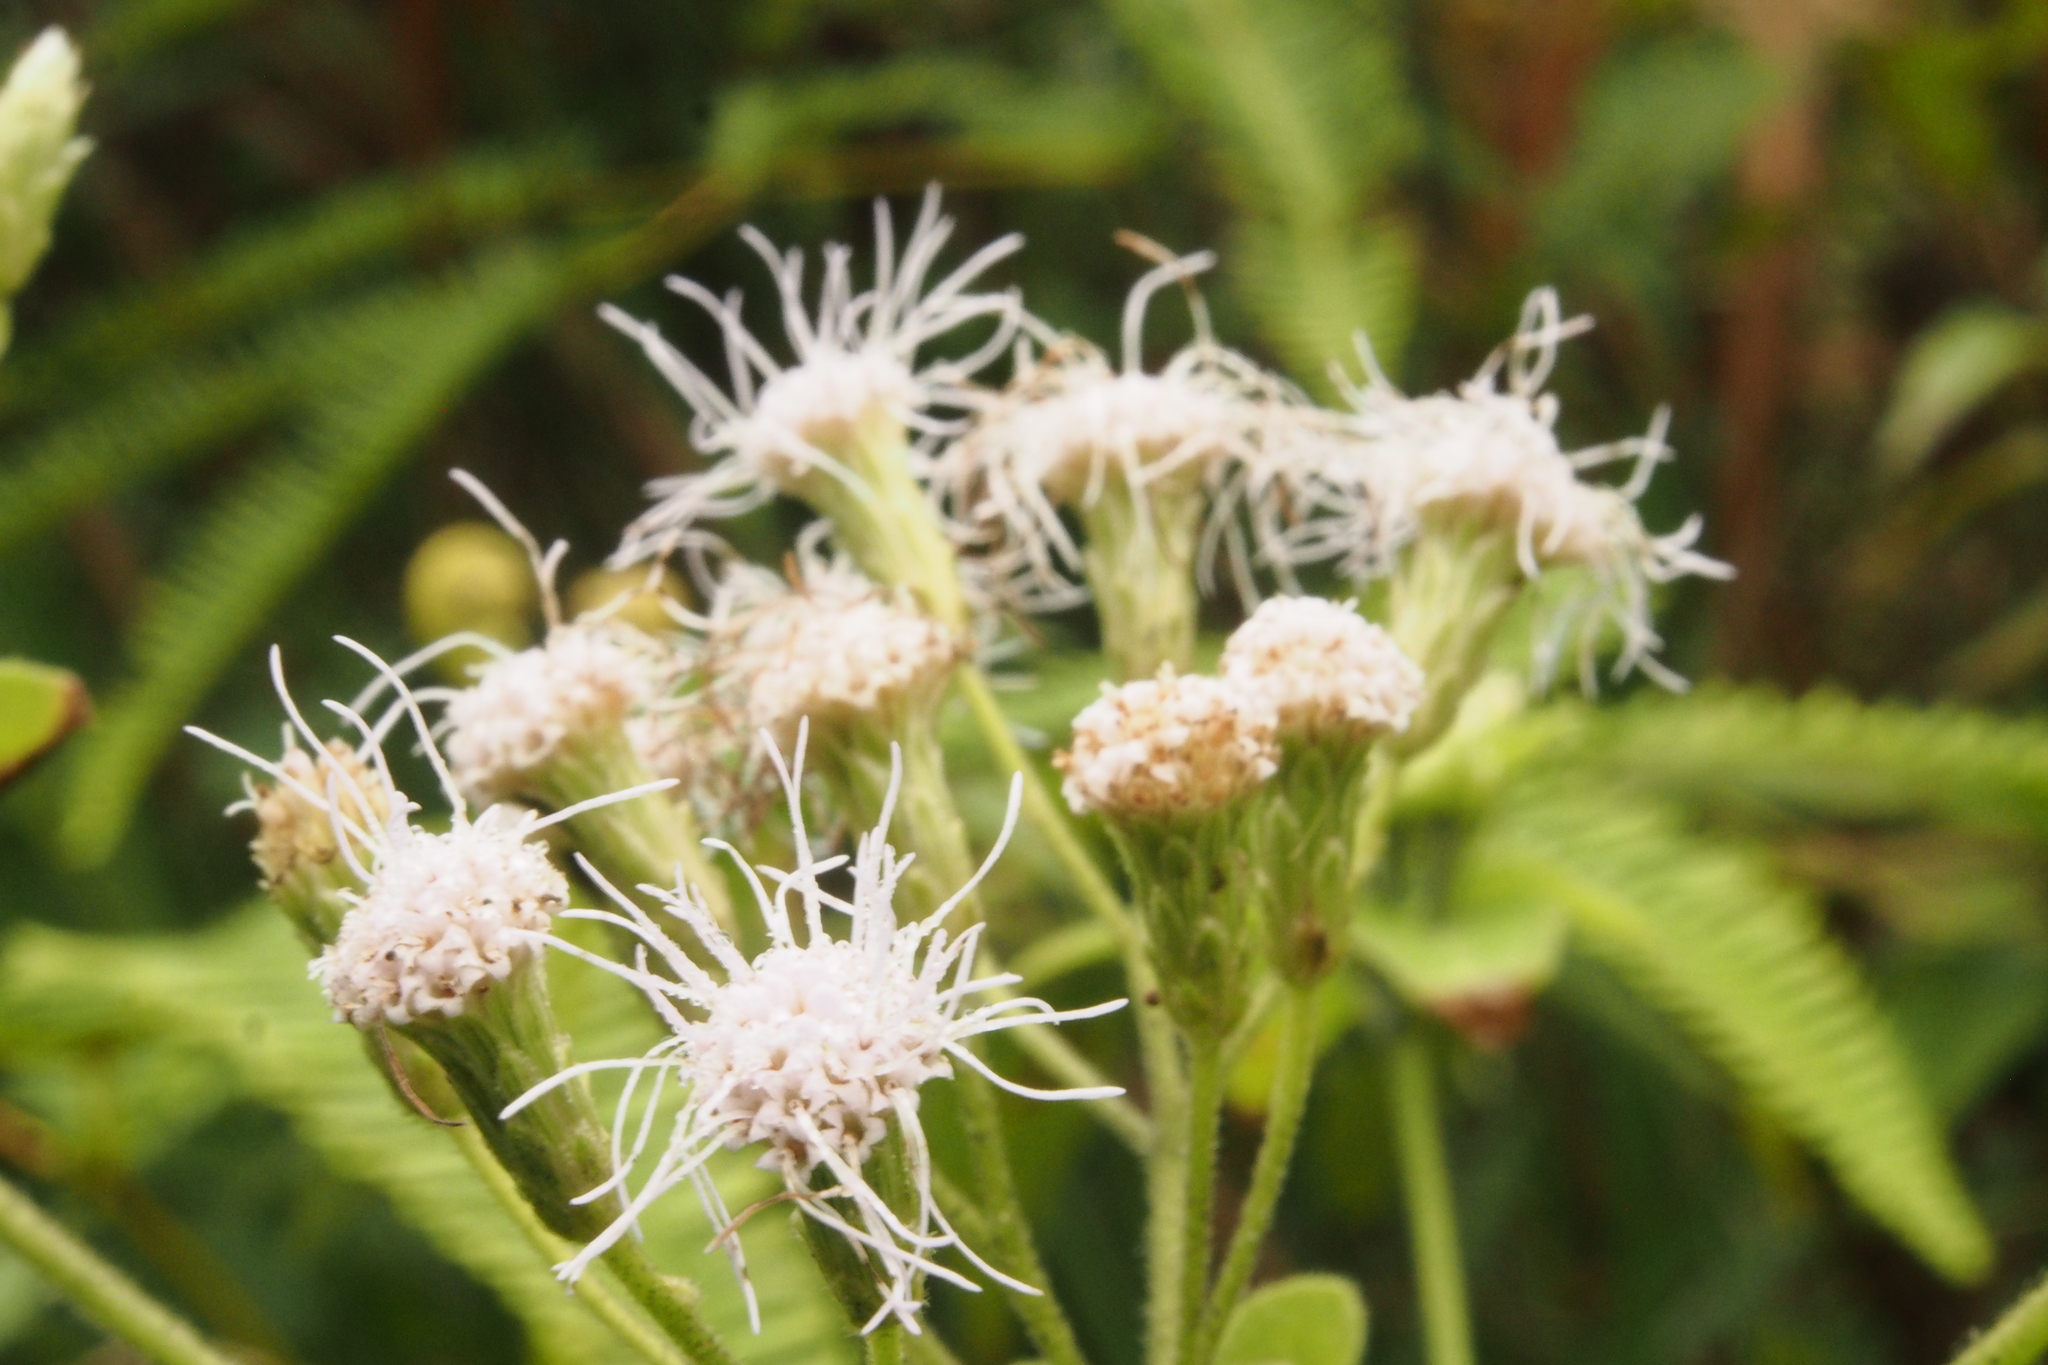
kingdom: Plantae
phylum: Tracheophyta
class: Magnoliopsida
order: Asterales
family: Asteraceae
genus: Chromolaena
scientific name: Chromolaena odorata
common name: Siamweed
